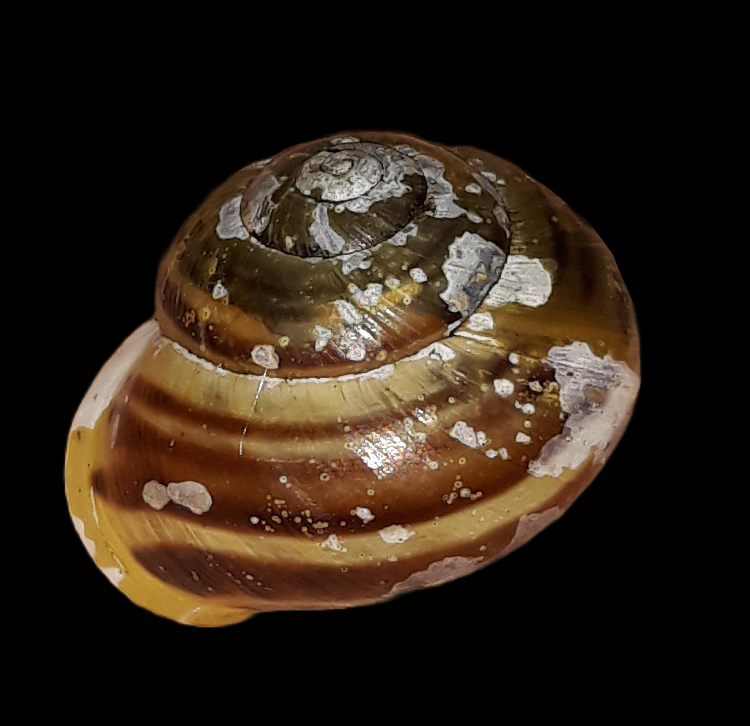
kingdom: Animalia
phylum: Mollusca
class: Gastropoda
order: Stylommatophora
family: Helicidae
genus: Cepaea
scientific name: Cepaea hortensis
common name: White-lip gardensnail
